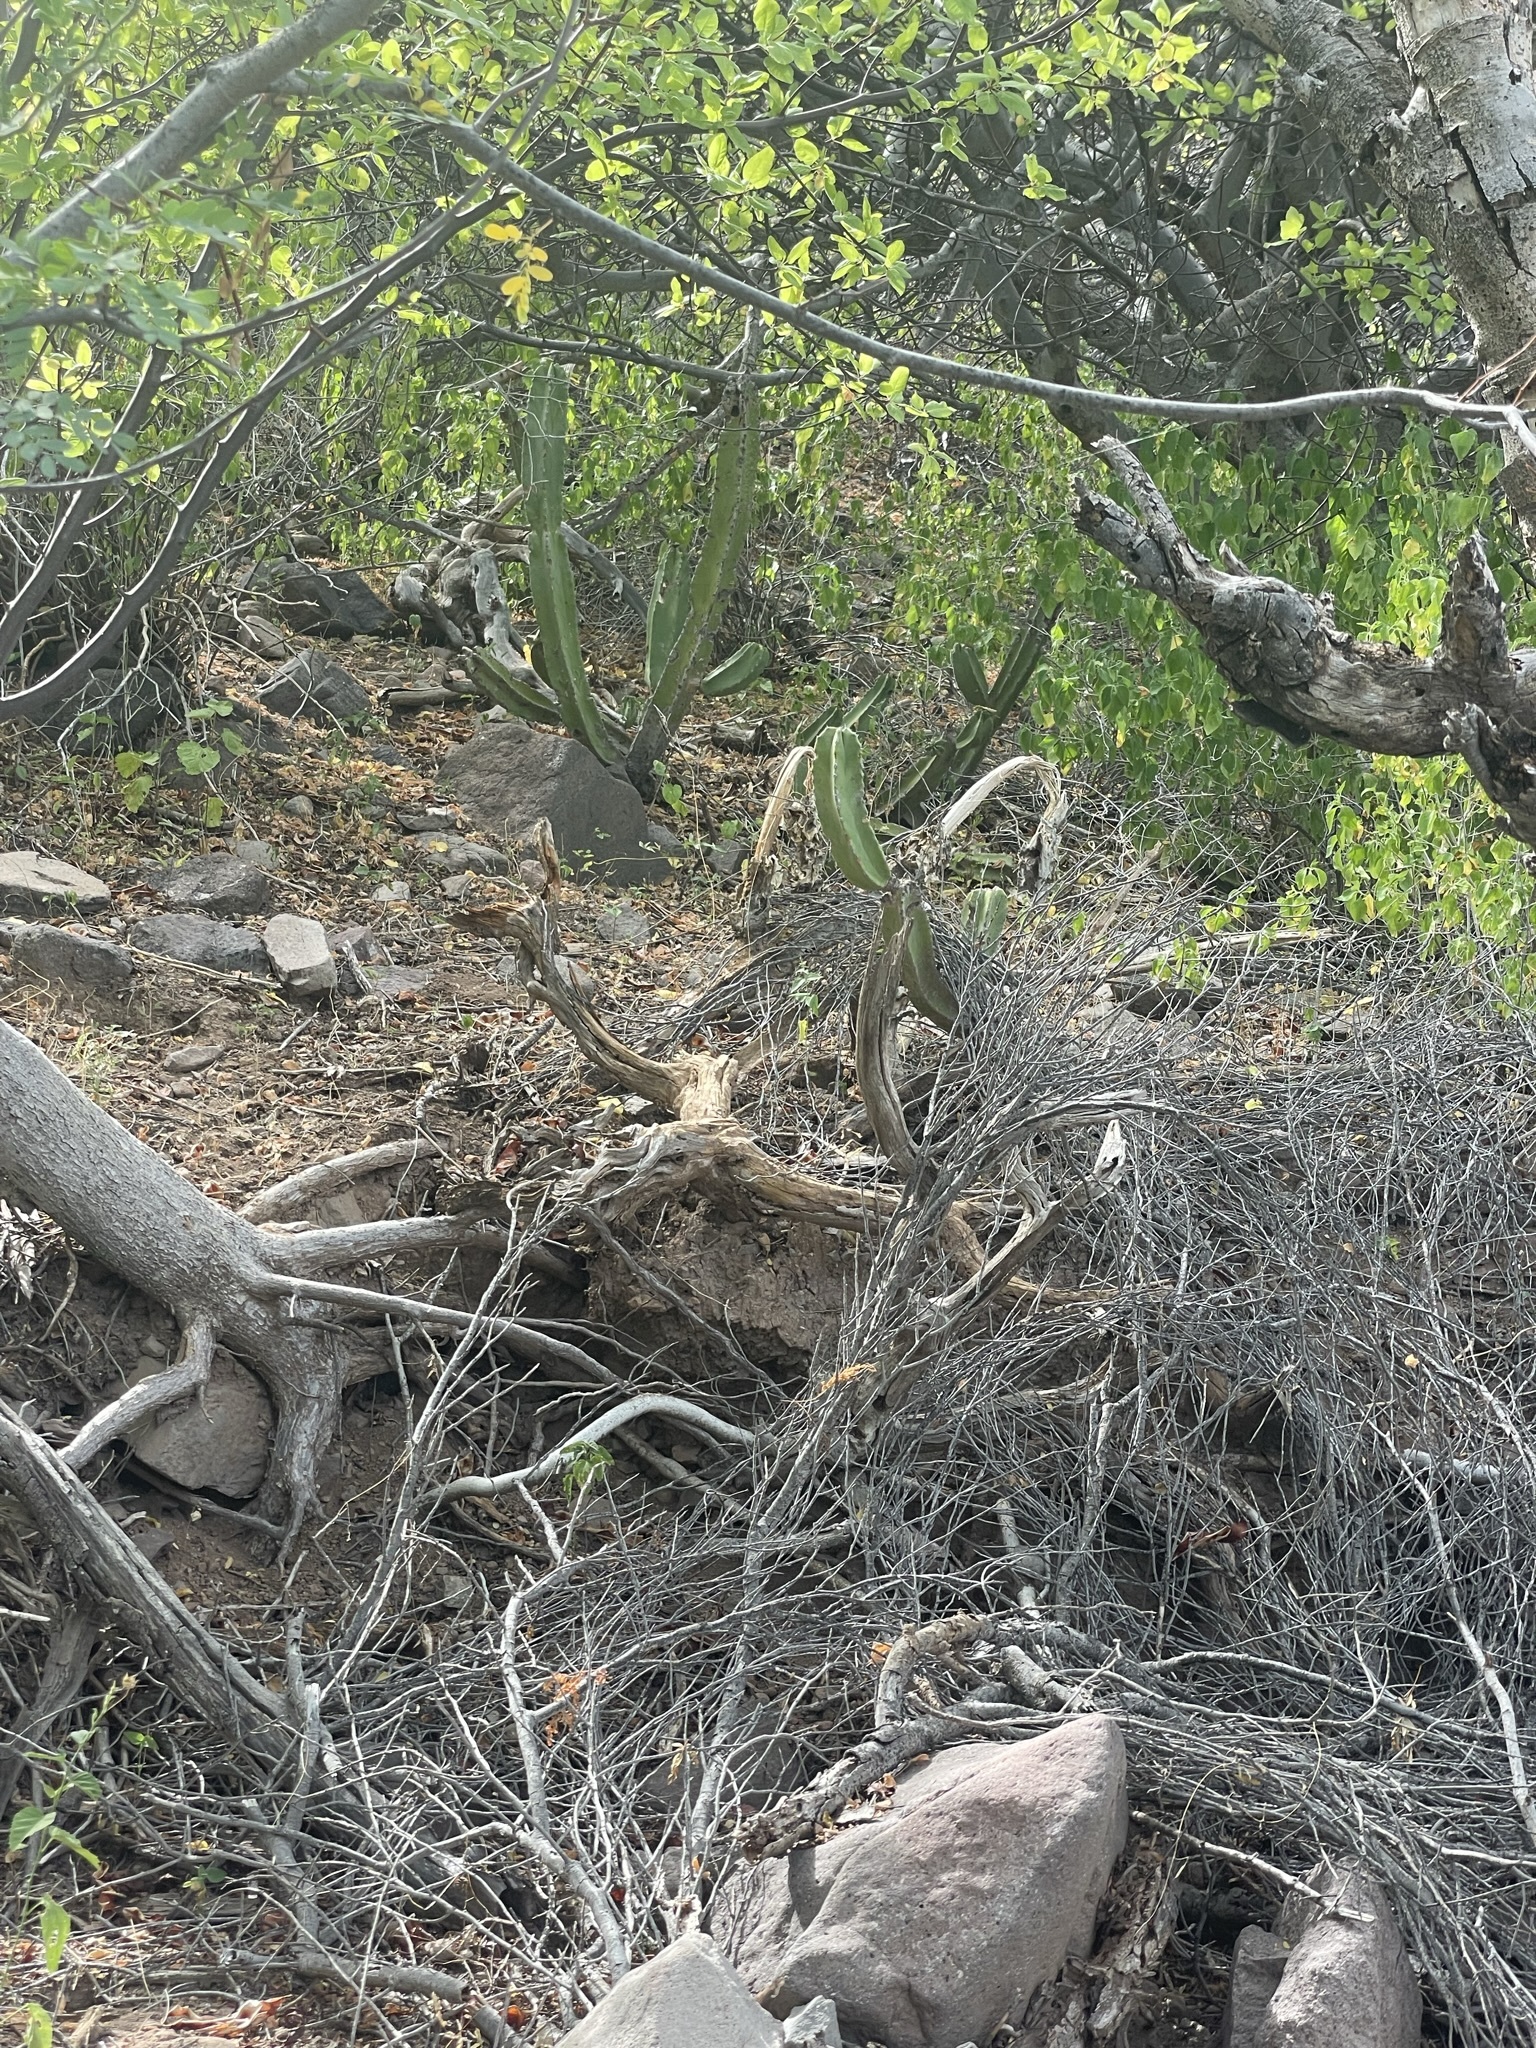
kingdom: Plantae
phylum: Tracheophyta
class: Magnoliopsida
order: Caryophyllales
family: Cactaceae
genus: Pachycereus
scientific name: Pachycereus schottii
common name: Senita cactus
